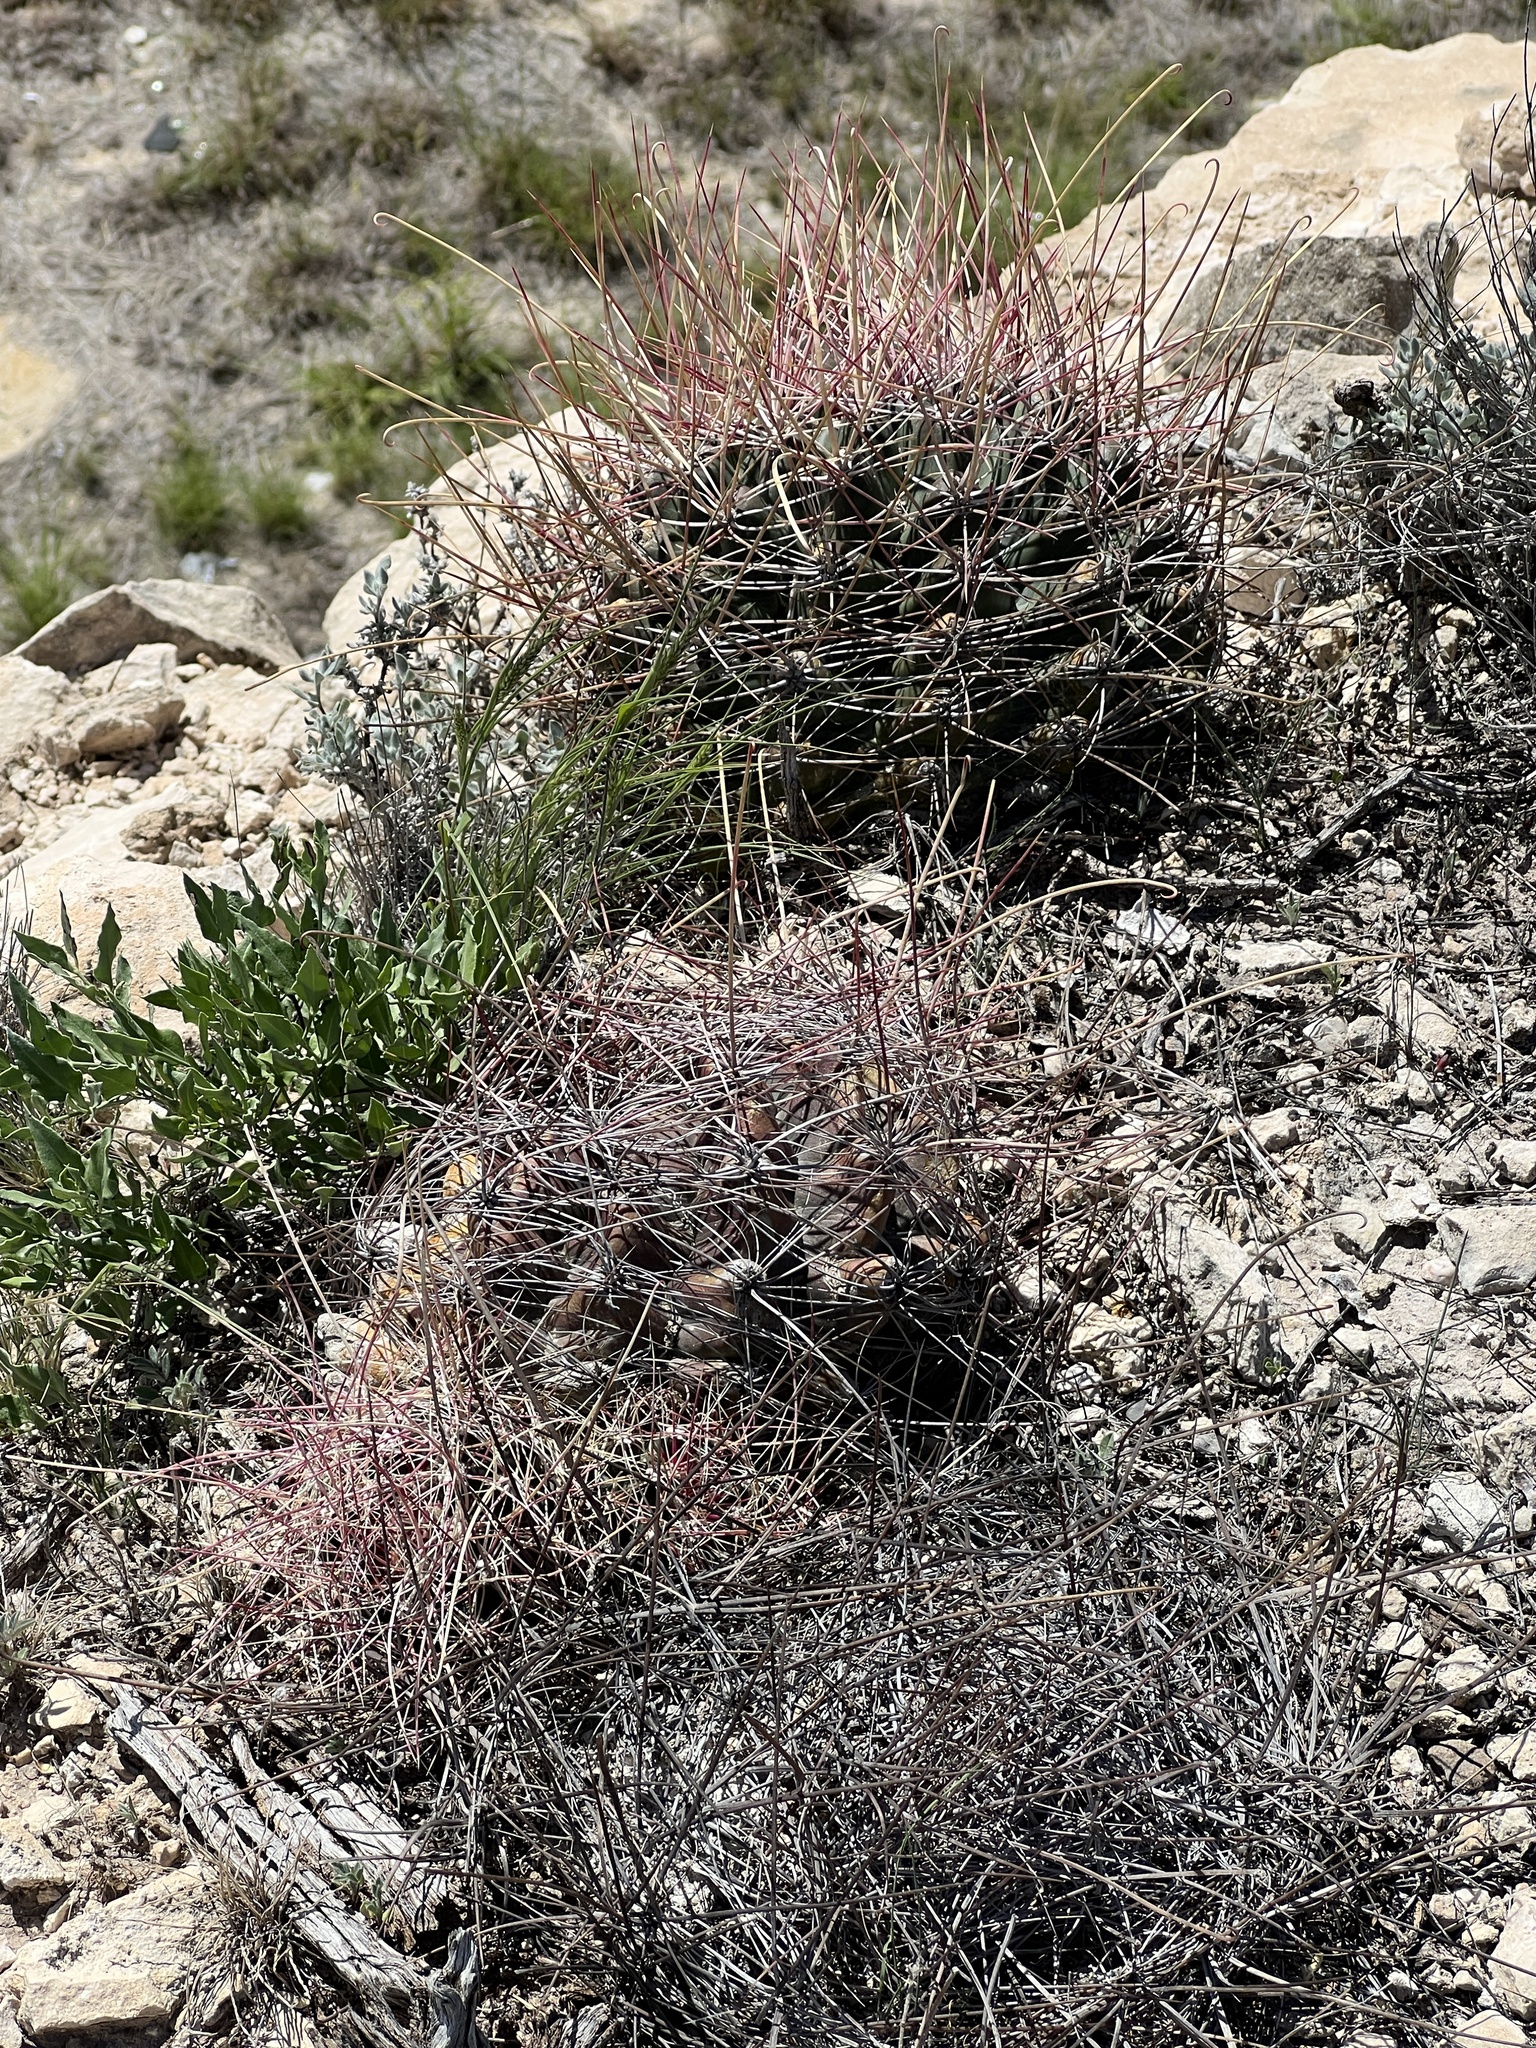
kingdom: Plantae
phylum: Tracheophyta
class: Magnoliopsida
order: Caryophyllales
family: Cactaceae
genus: Bisnaga
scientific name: Bisnaga hamatacantha
